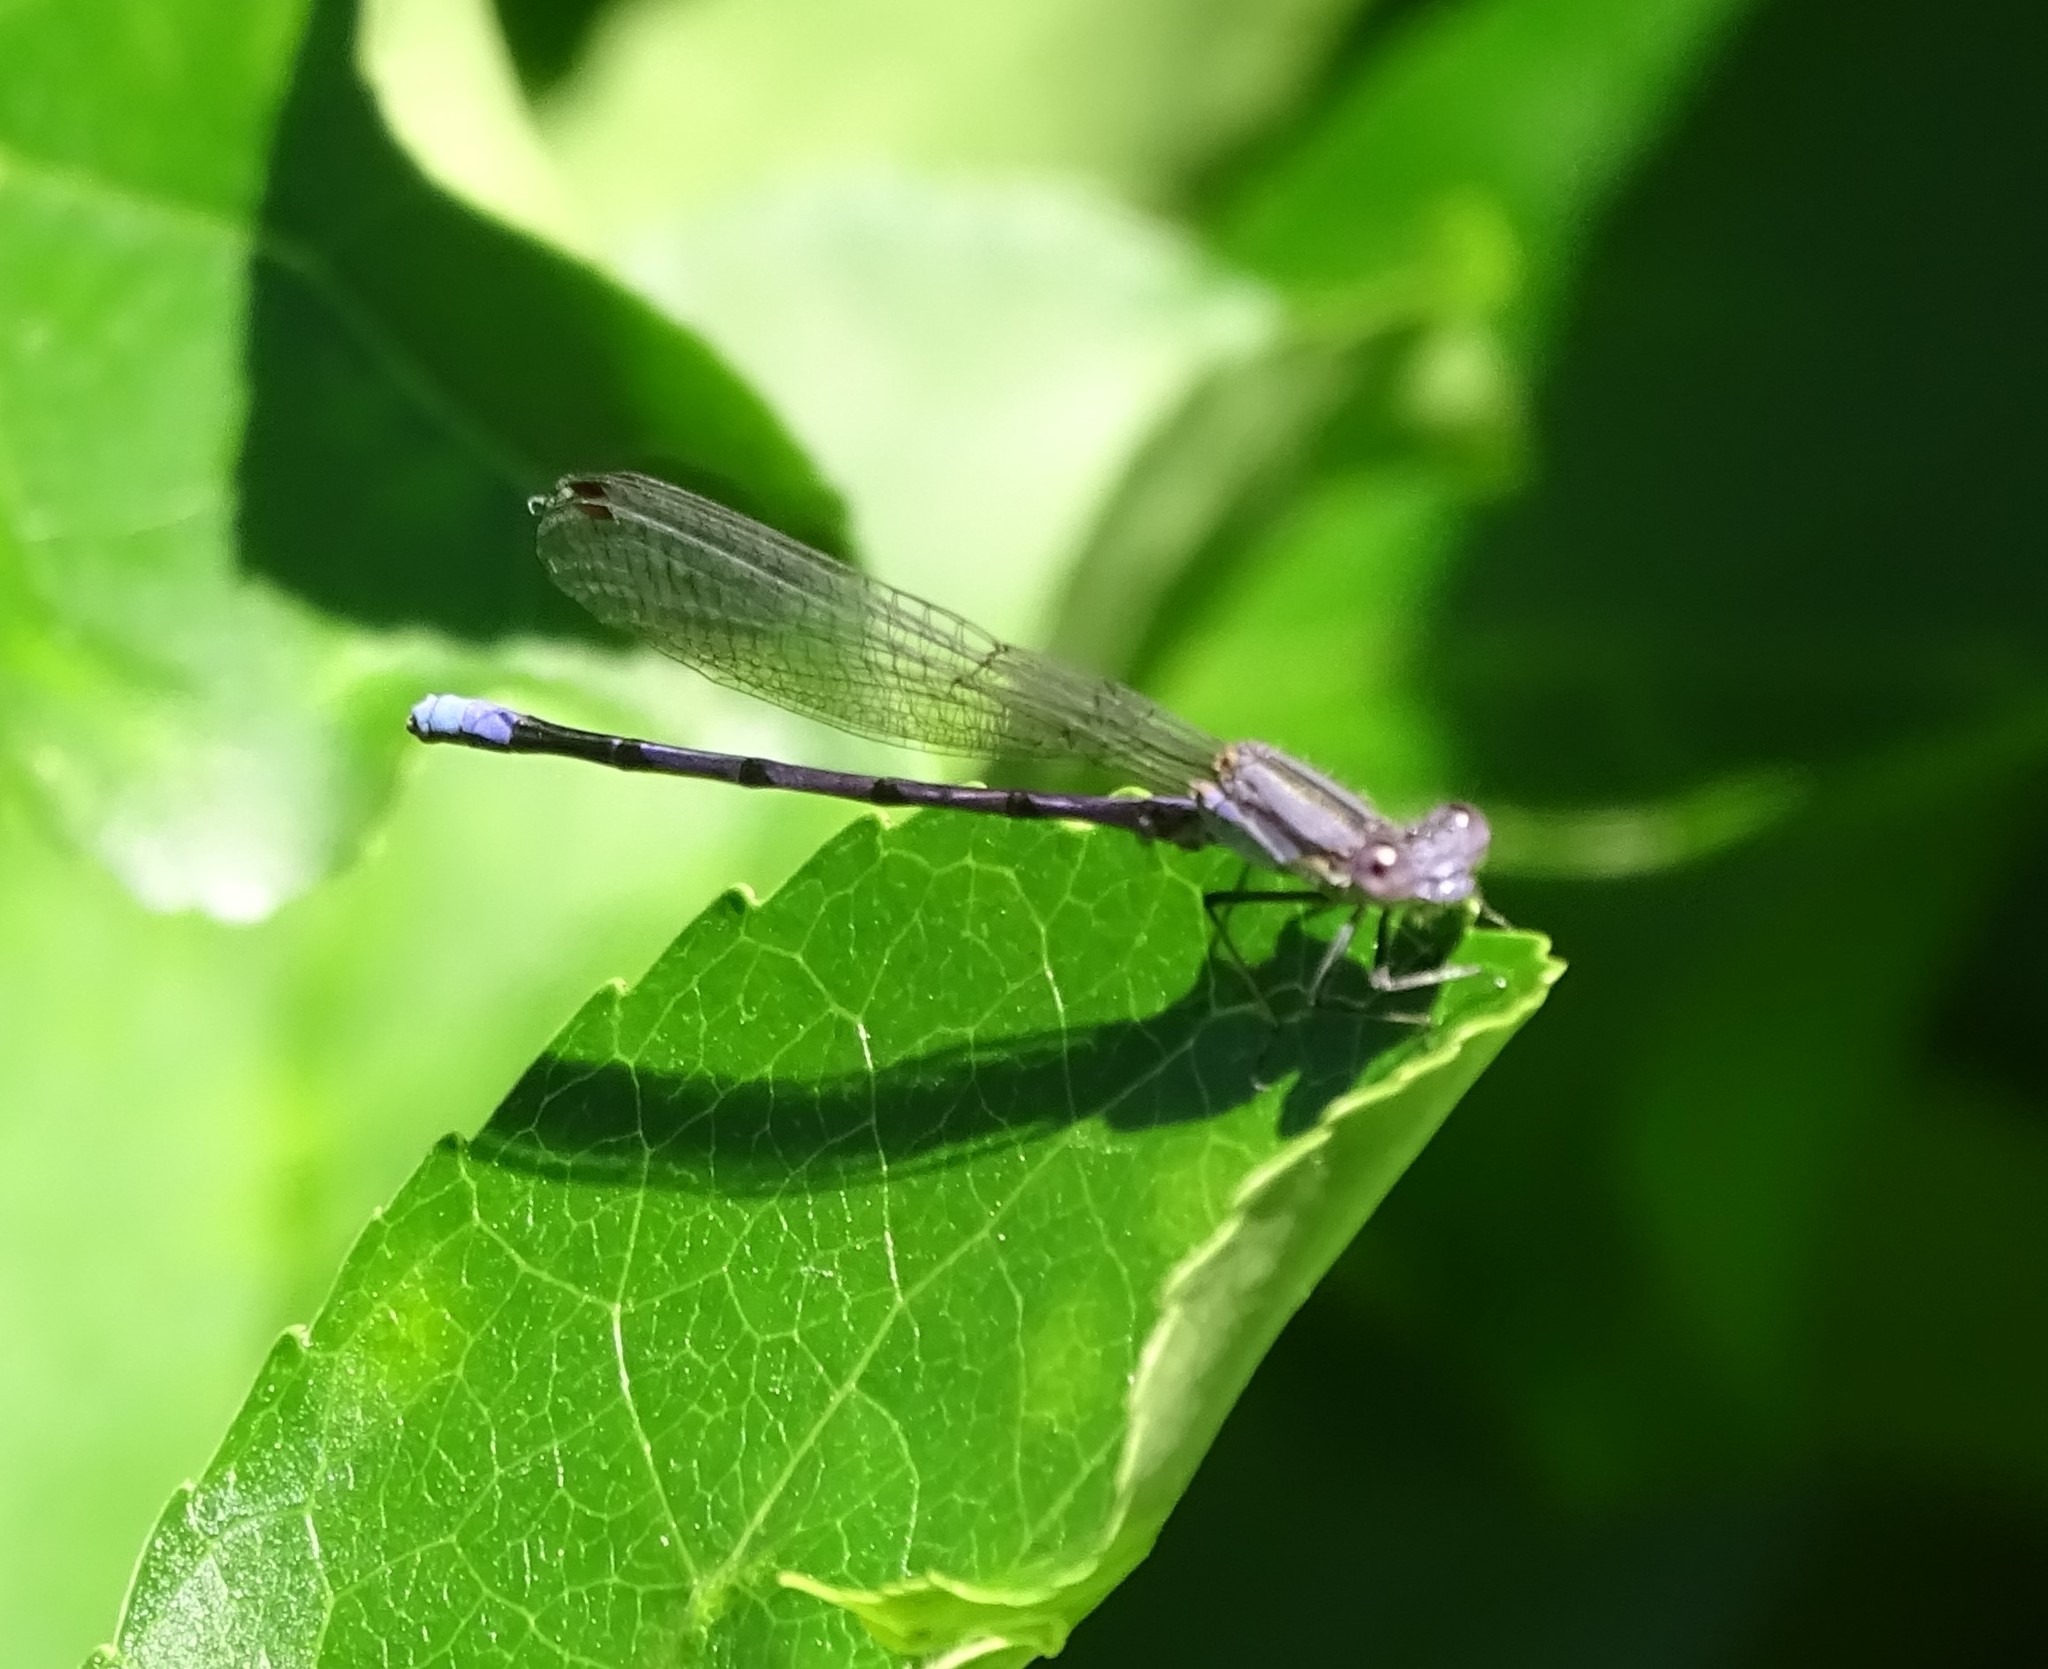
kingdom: Animalia
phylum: Arthropoda
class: Insecta
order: Odonata
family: Coenagrionidae
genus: Argia
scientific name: Argia fumipennis
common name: Variable dancer
